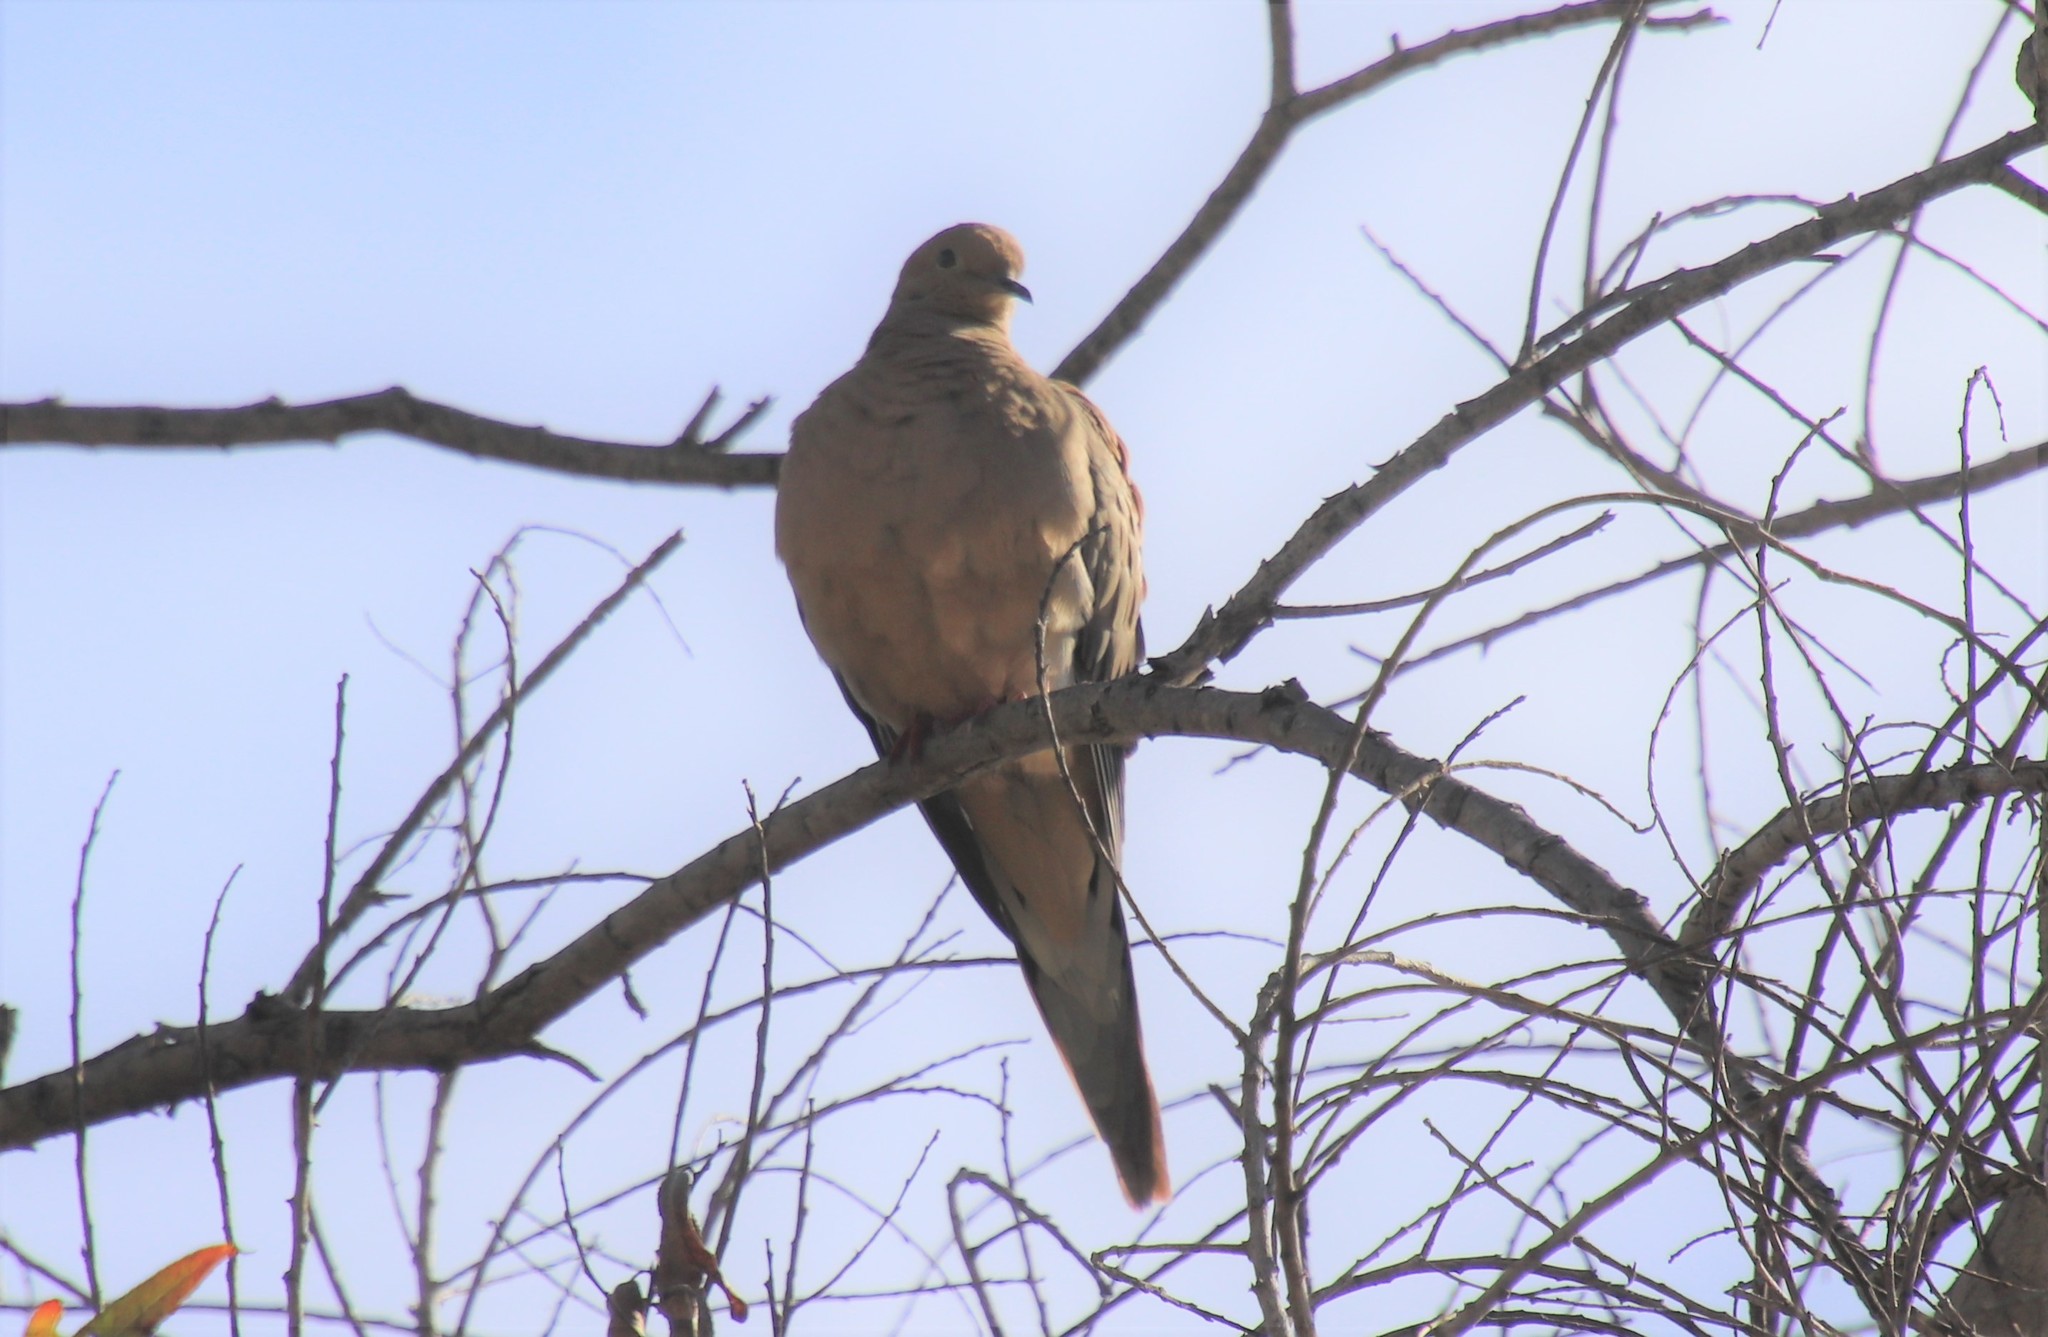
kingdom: Animalia
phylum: Chordata
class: Aves
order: Columbiformes
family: Columbidae
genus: Zenaida
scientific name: Zenaida macroura
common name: Mourning dove
